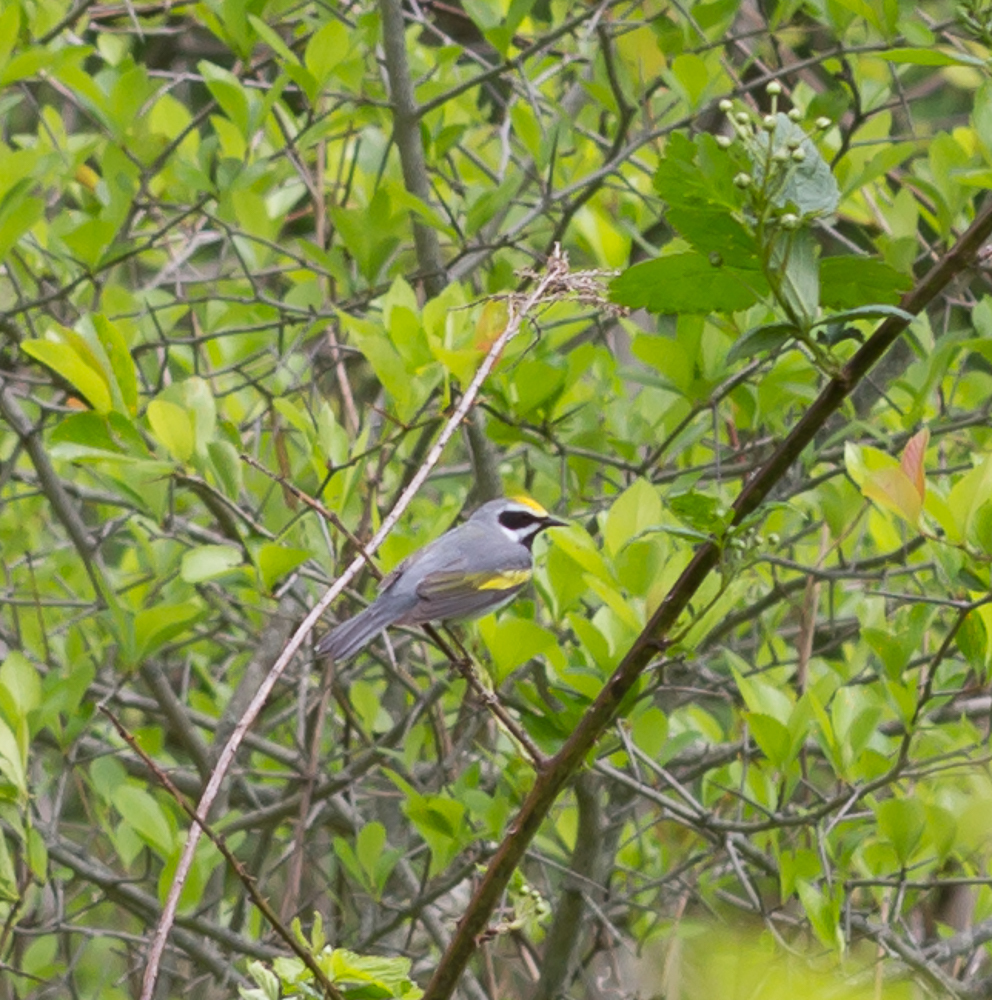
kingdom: Animalia
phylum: Chordata
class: Aves
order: Passeriformes
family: Parulidae
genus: Vermivora
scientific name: Vermivora chrysoptera
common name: Golden-winged warbler
